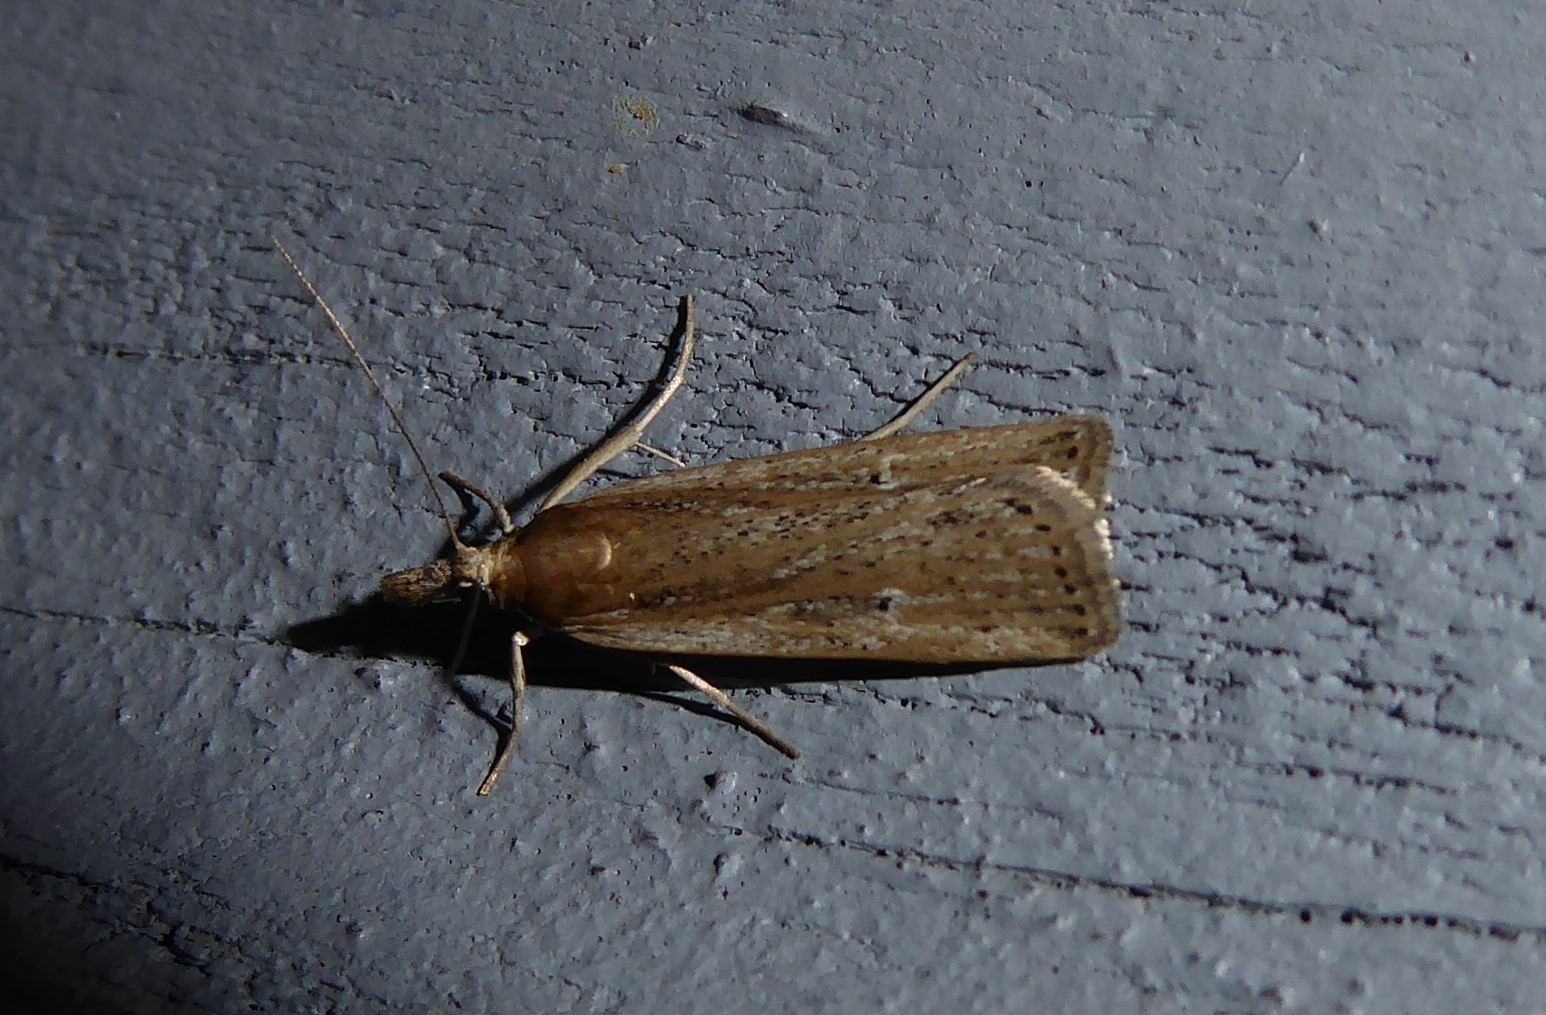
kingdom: Animalia
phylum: Arthropoda
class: Insecta
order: Lepidoptera
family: Crambidae
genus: Eudonia
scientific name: Eudonia sabulosella
